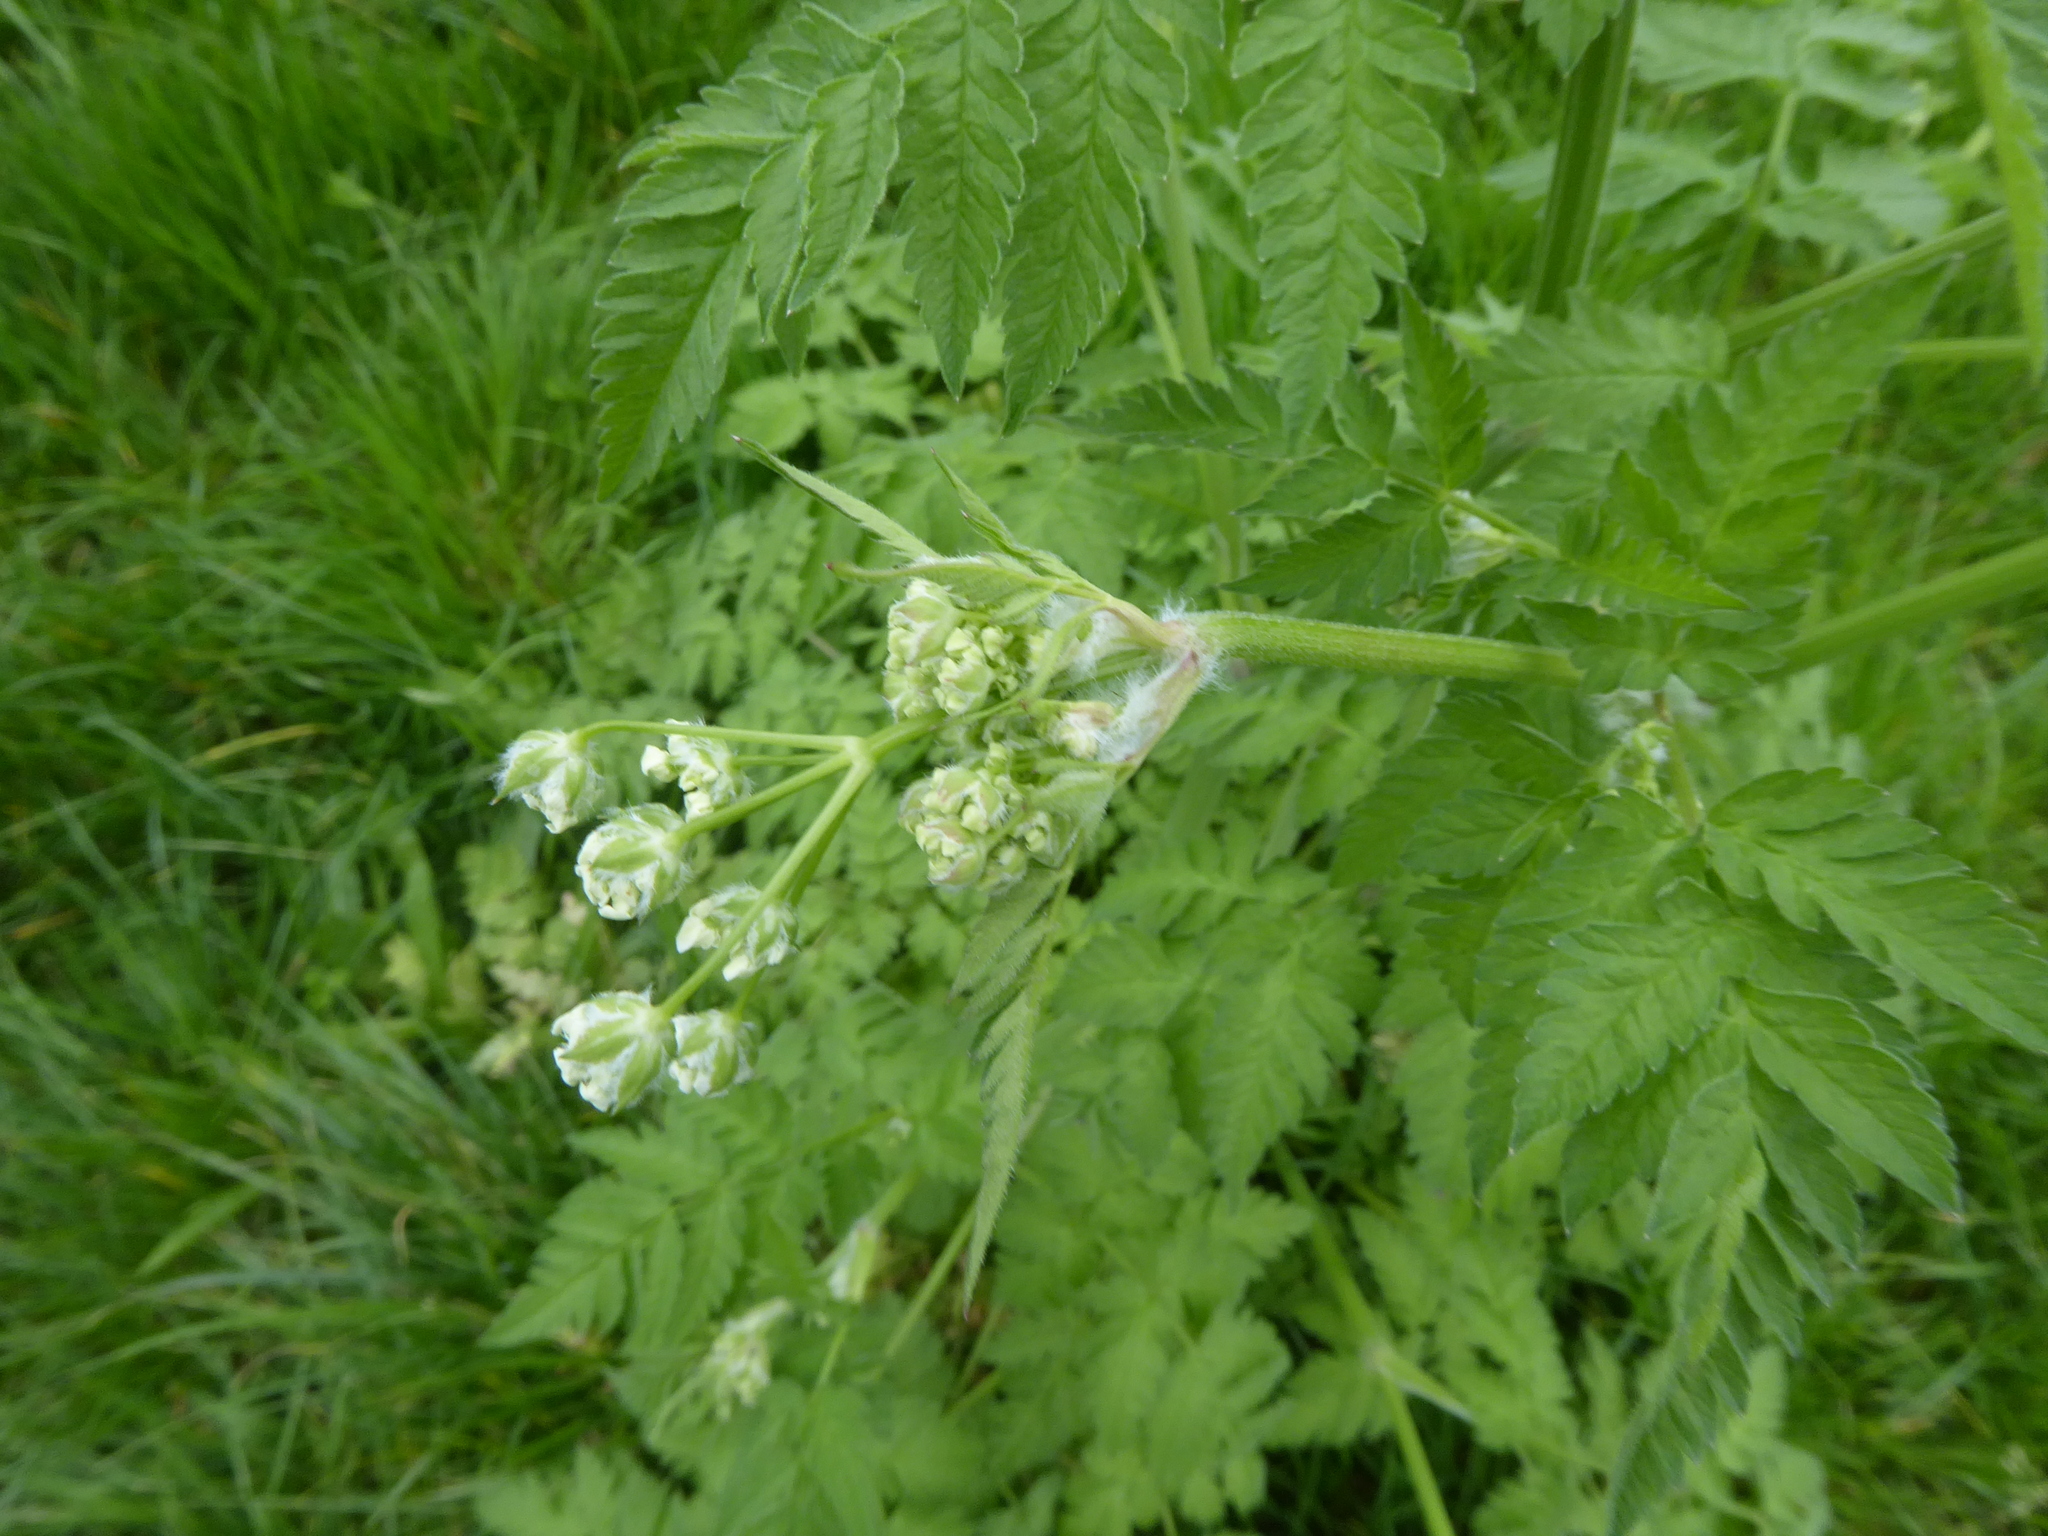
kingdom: Plantae
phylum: Tracheophyta
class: Magnoliopsida
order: Apiales
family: Apiaceae
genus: Anthriscus
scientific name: Anthriscus sylvestris
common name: Cow parsley
